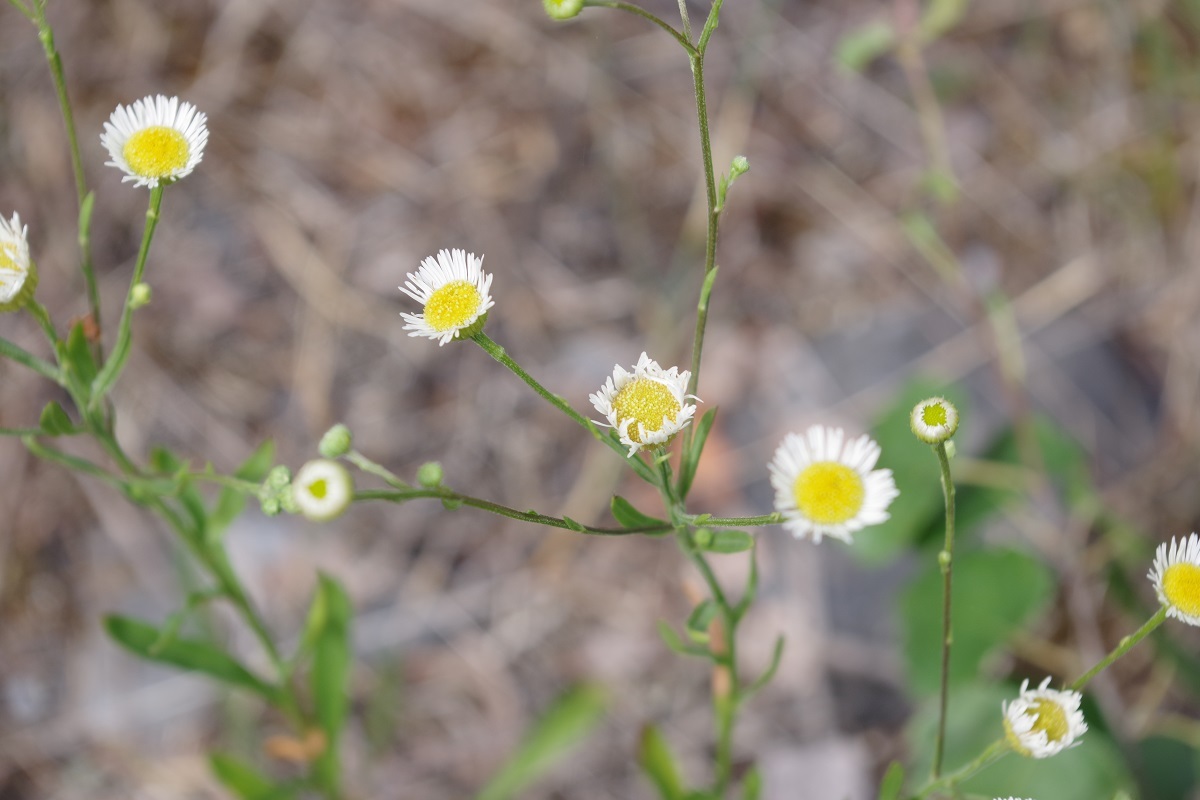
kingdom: Plantae
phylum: Tracheophyta
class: Magnoliopsida
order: Asterales
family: Asteraceae
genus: Erigeron
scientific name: Erigeron annuus
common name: Tall fleabane
